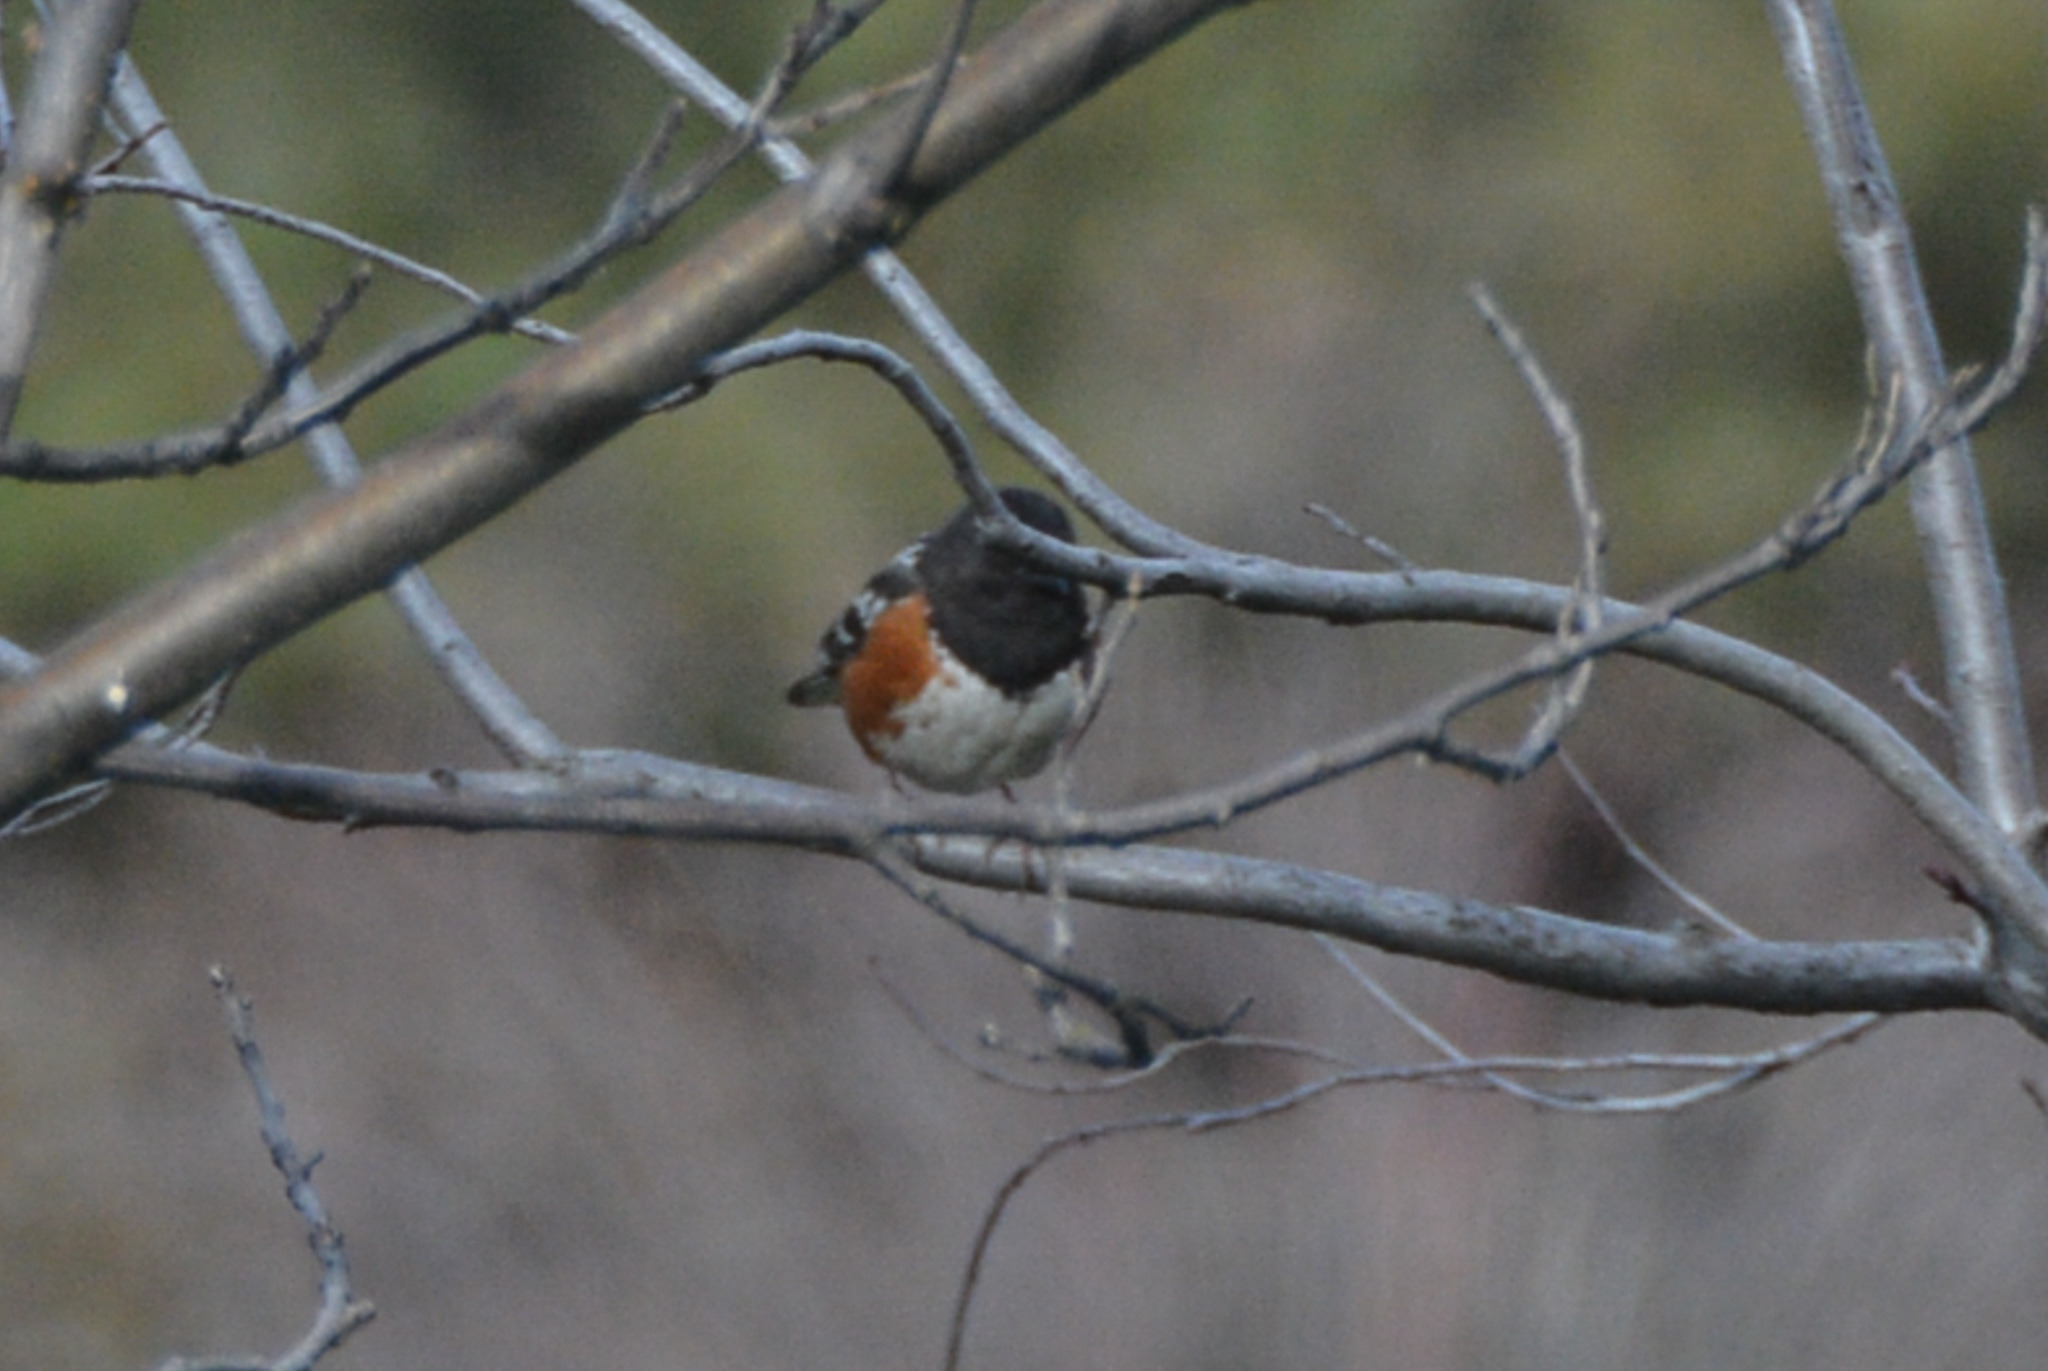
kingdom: Animalia
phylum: Chordata
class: Aves
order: Passeriformes
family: Passerellidae
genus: Pipilo
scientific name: Pipilo maculatus
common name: Spotted towhee
